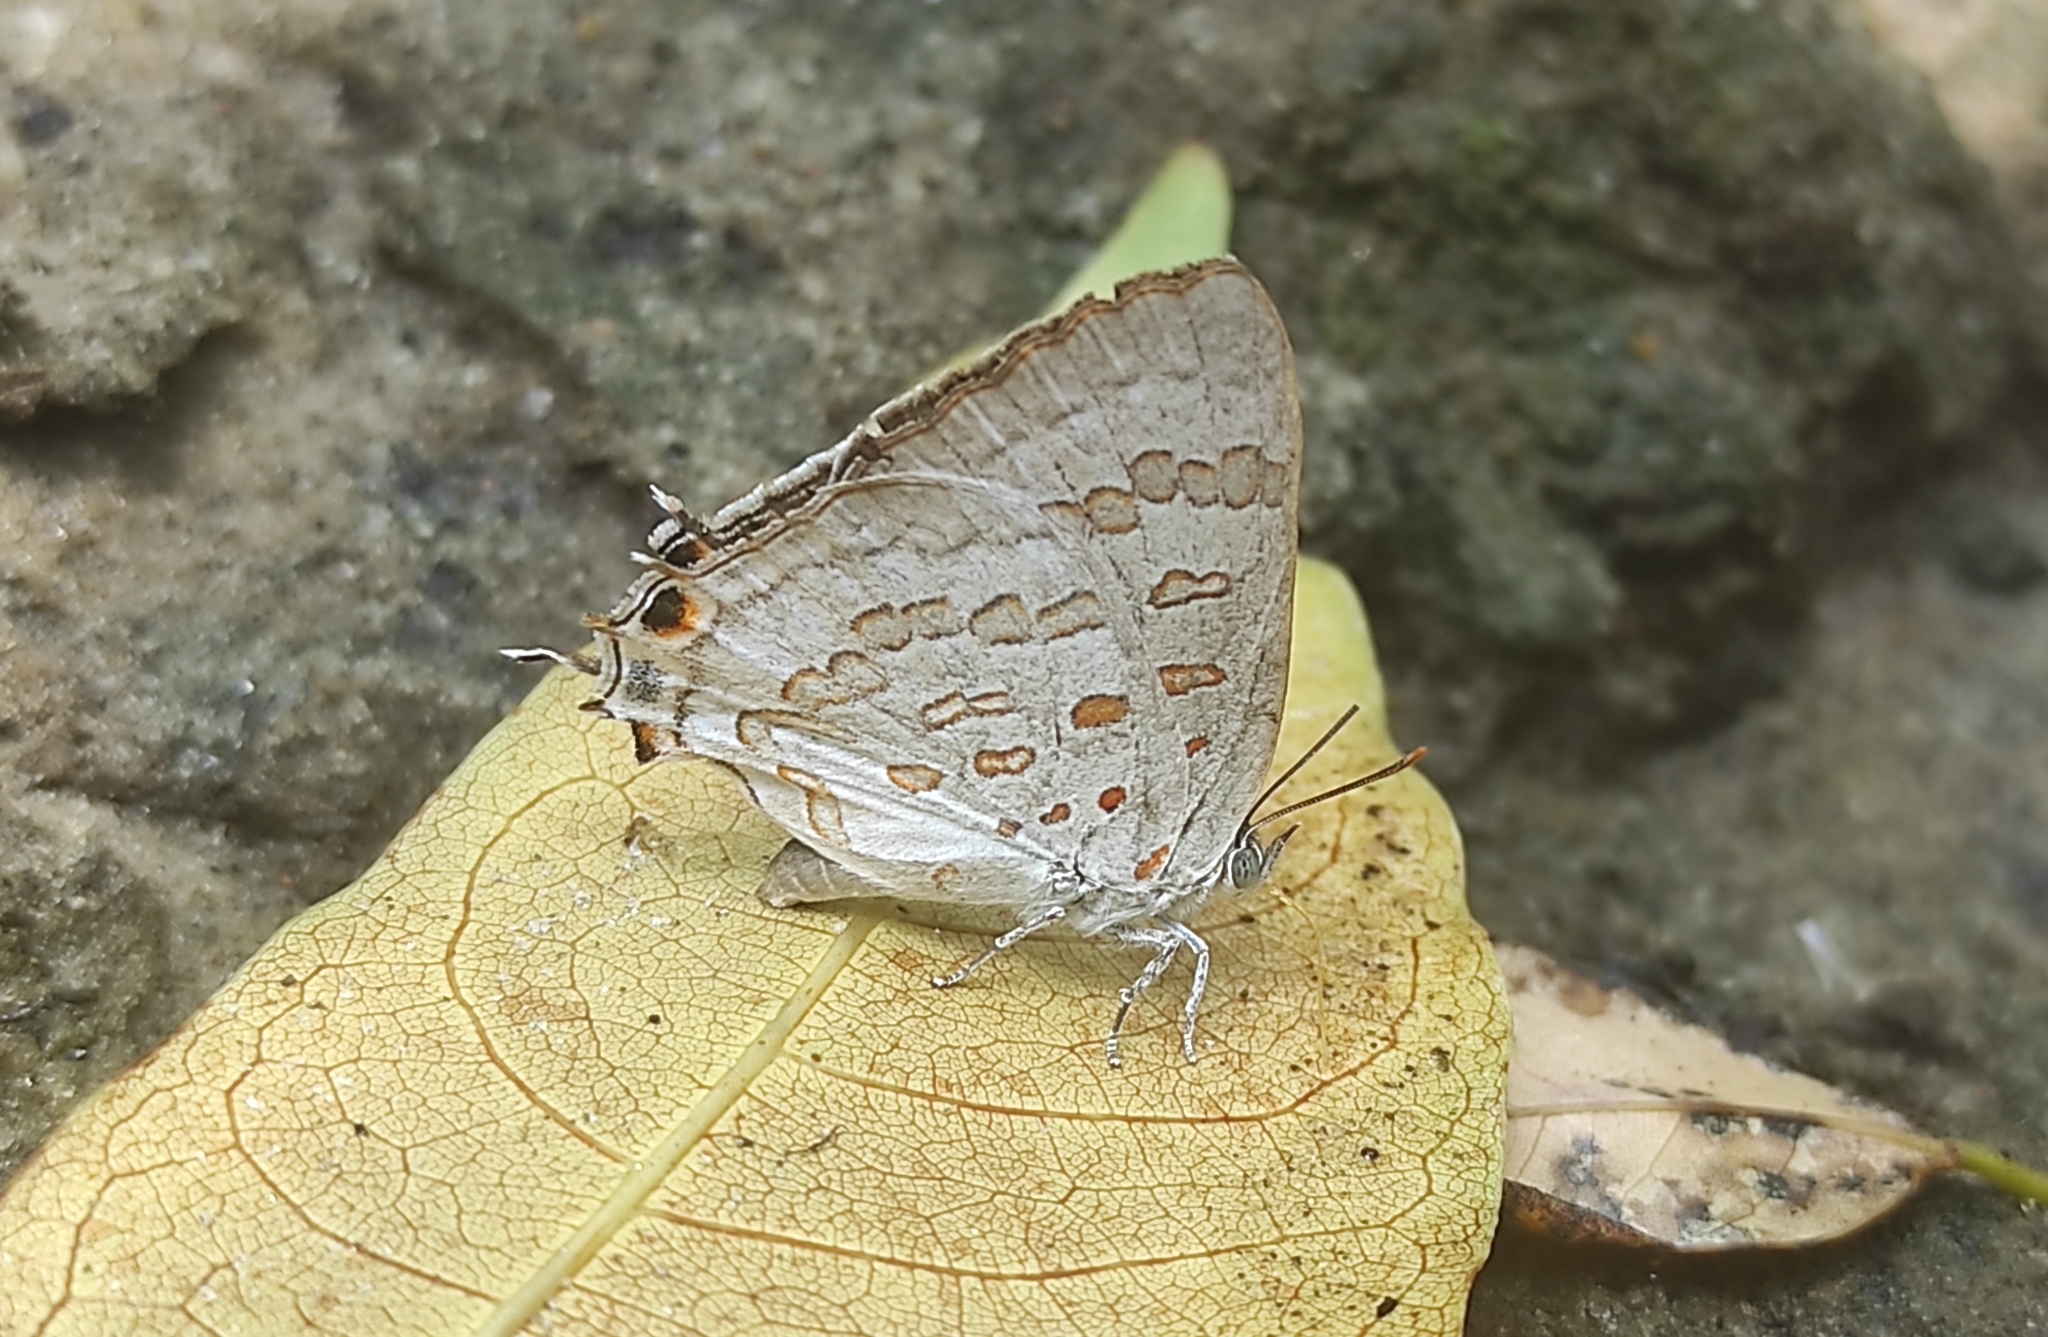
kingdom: Animalia
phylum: Arthropoda
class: Insecta
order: Lepidoptera
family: Lycaenidae
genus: Zesius
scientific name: Zesius chrysomallus
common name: Redspot
